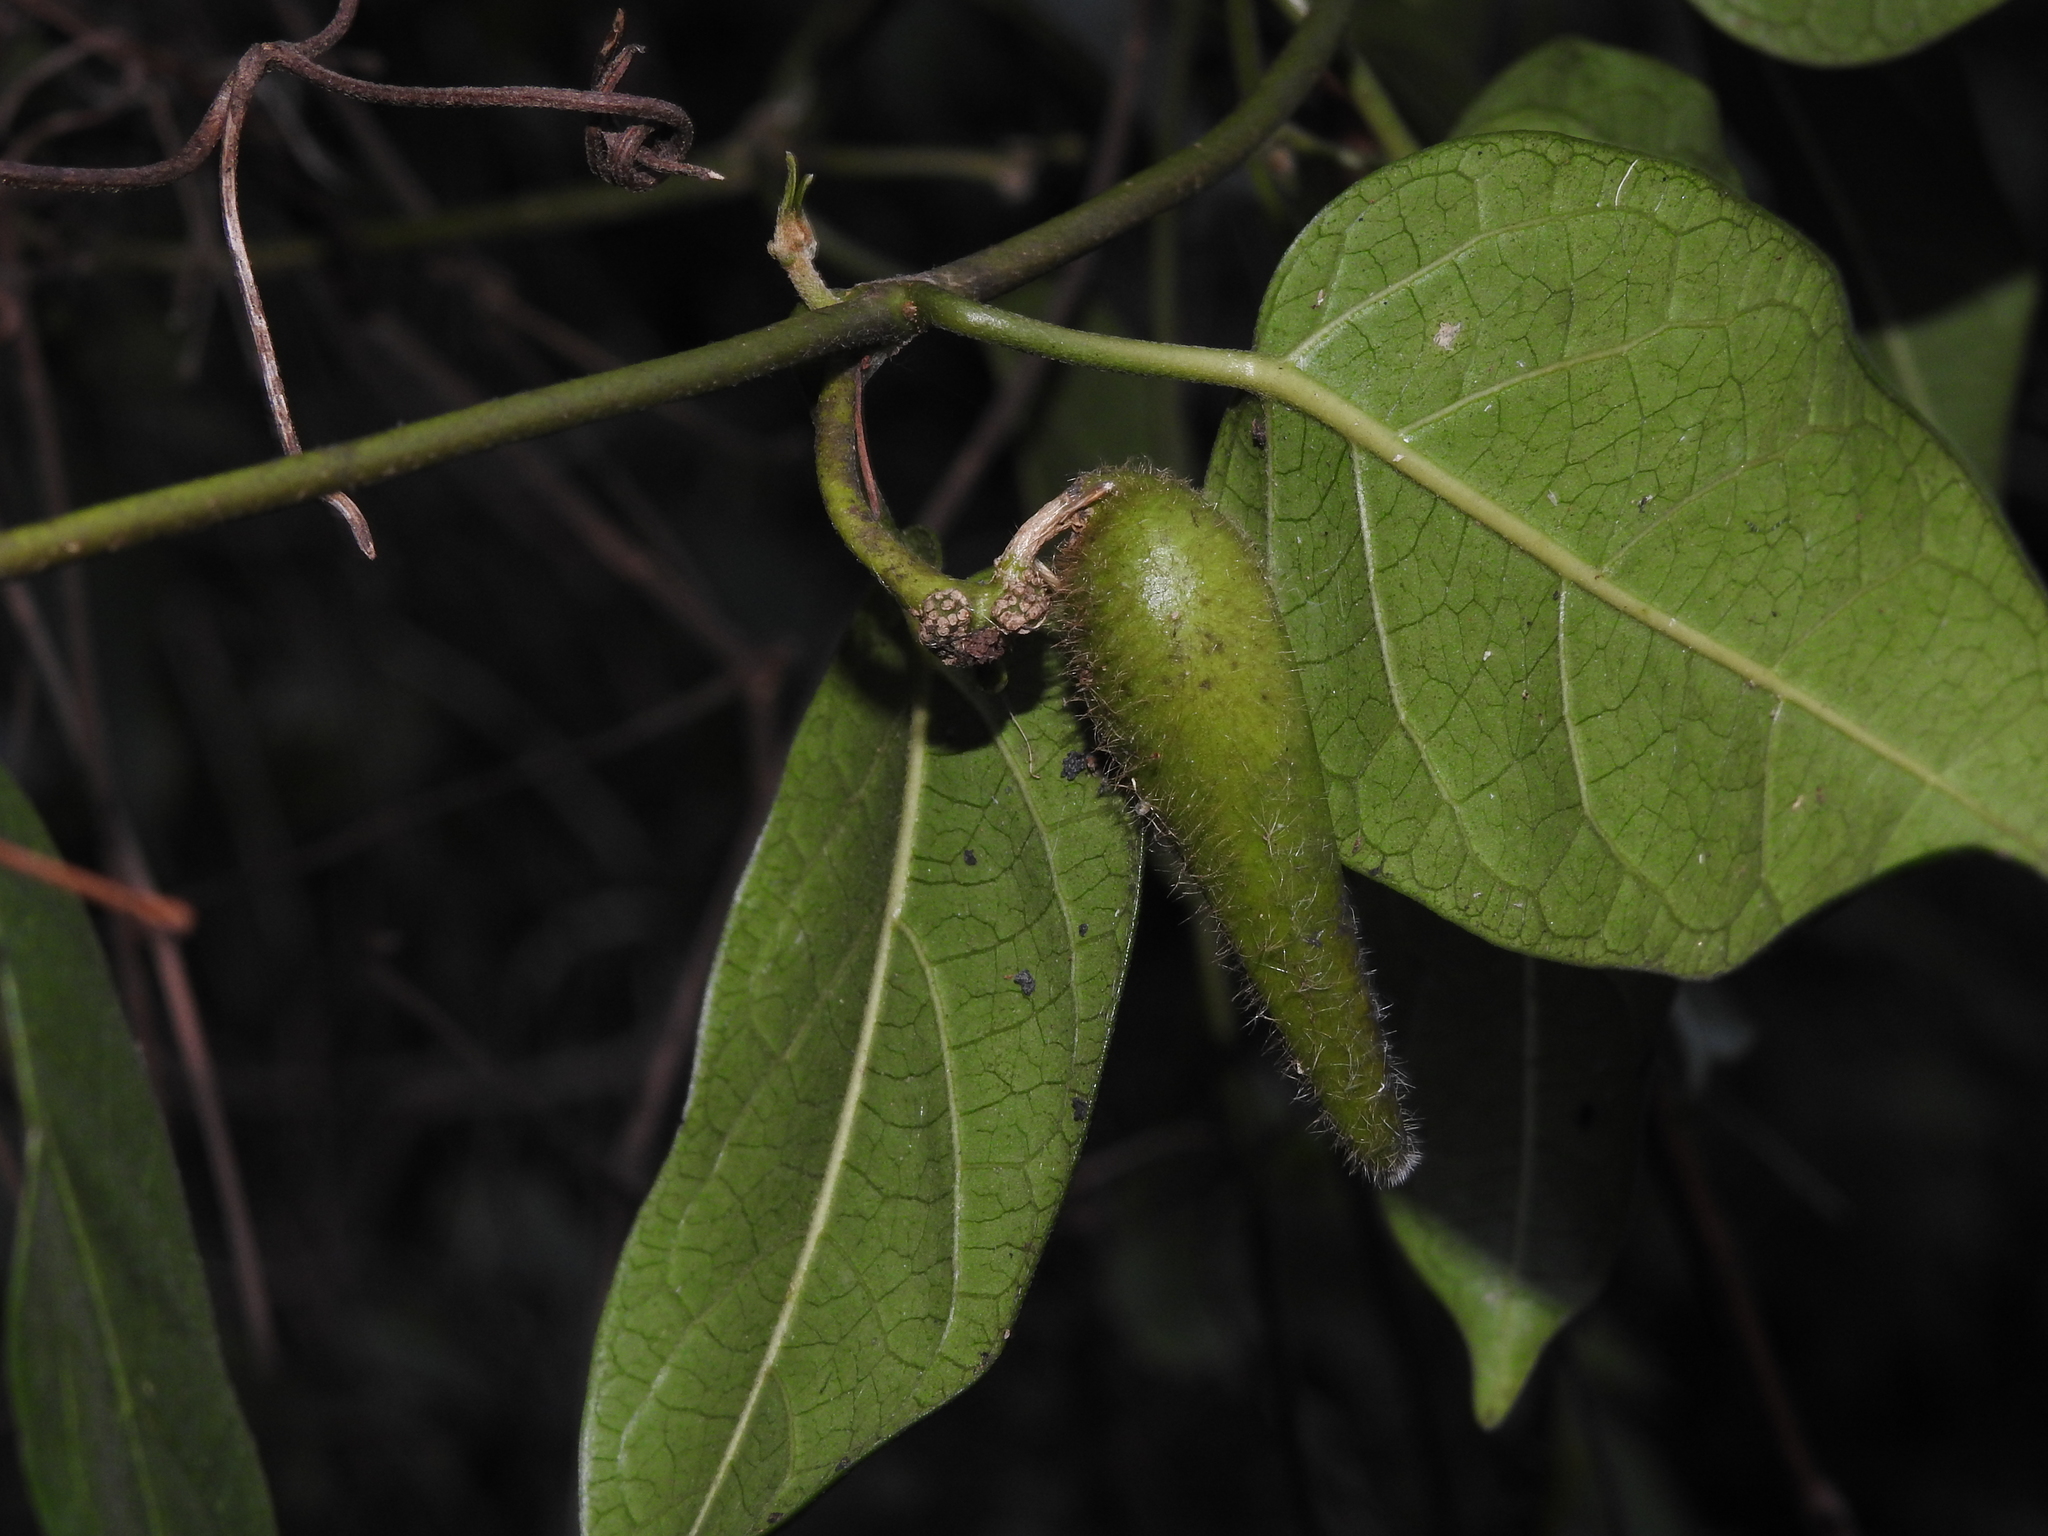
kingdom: Plantae
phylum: Tracheophyta
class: Magnoliopsida
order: Gentianales
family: Apocynaceae
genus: Marsdenia
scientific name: Marsdenia tinctoria
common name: Climbing-indigo
